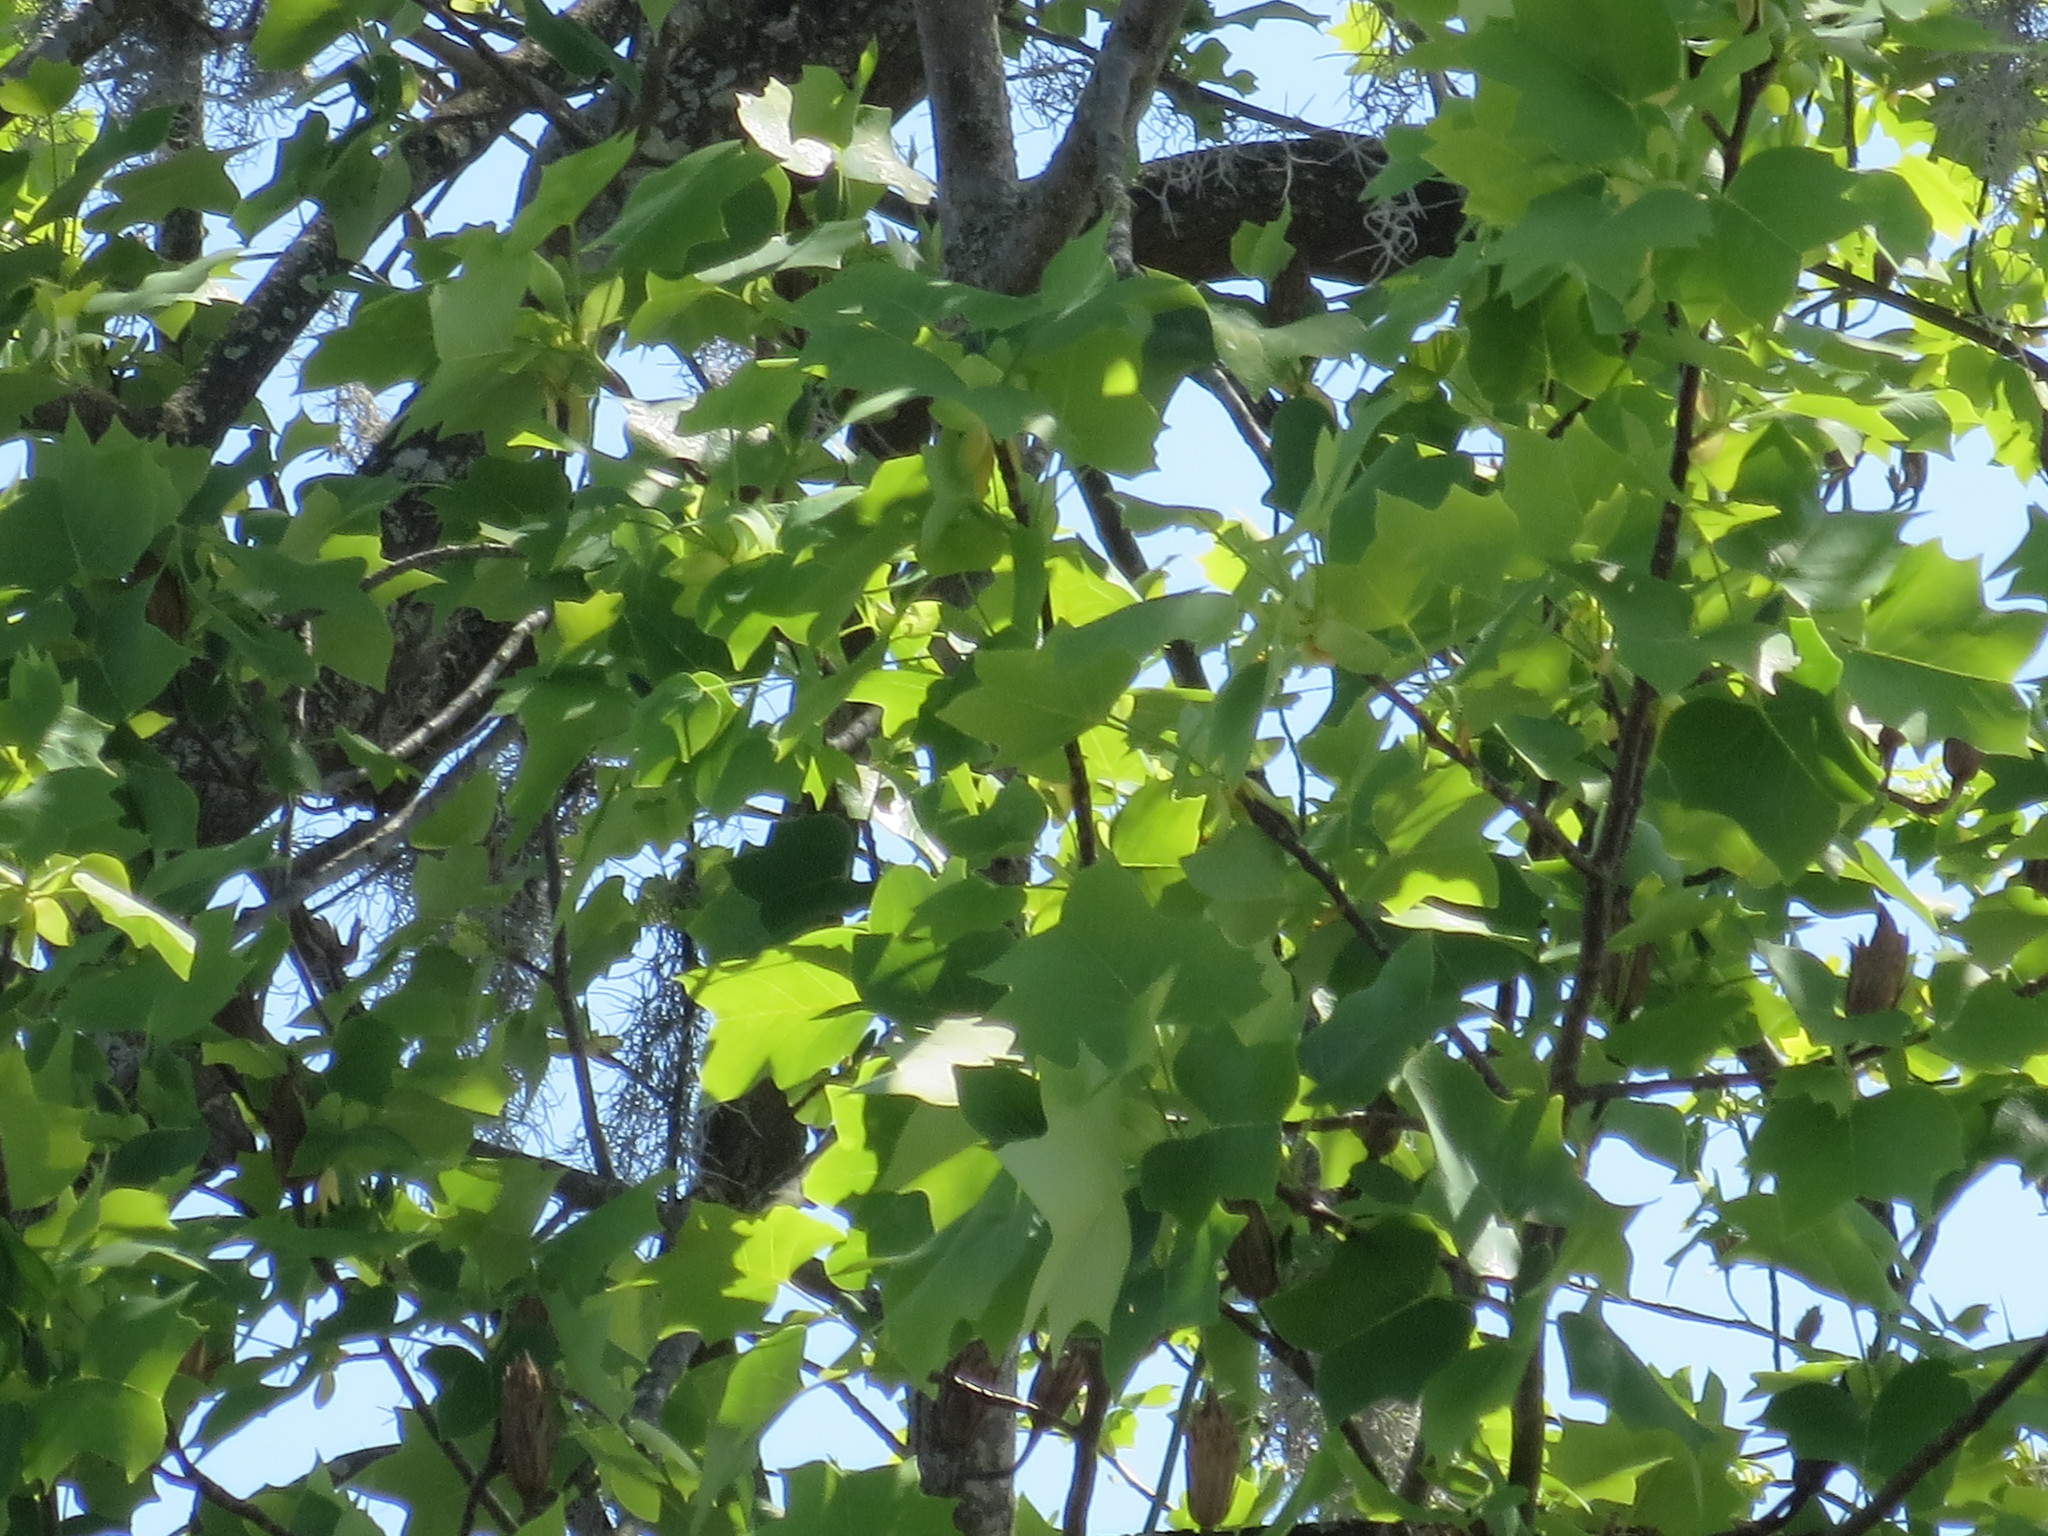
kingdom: Plantae
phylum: Tracheophyta
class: Magnoliopsida
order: Magnoliales
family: Magnoliaceae
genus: Liriodendron
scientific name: Liriodendron tulipifera
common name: Tulip tree
